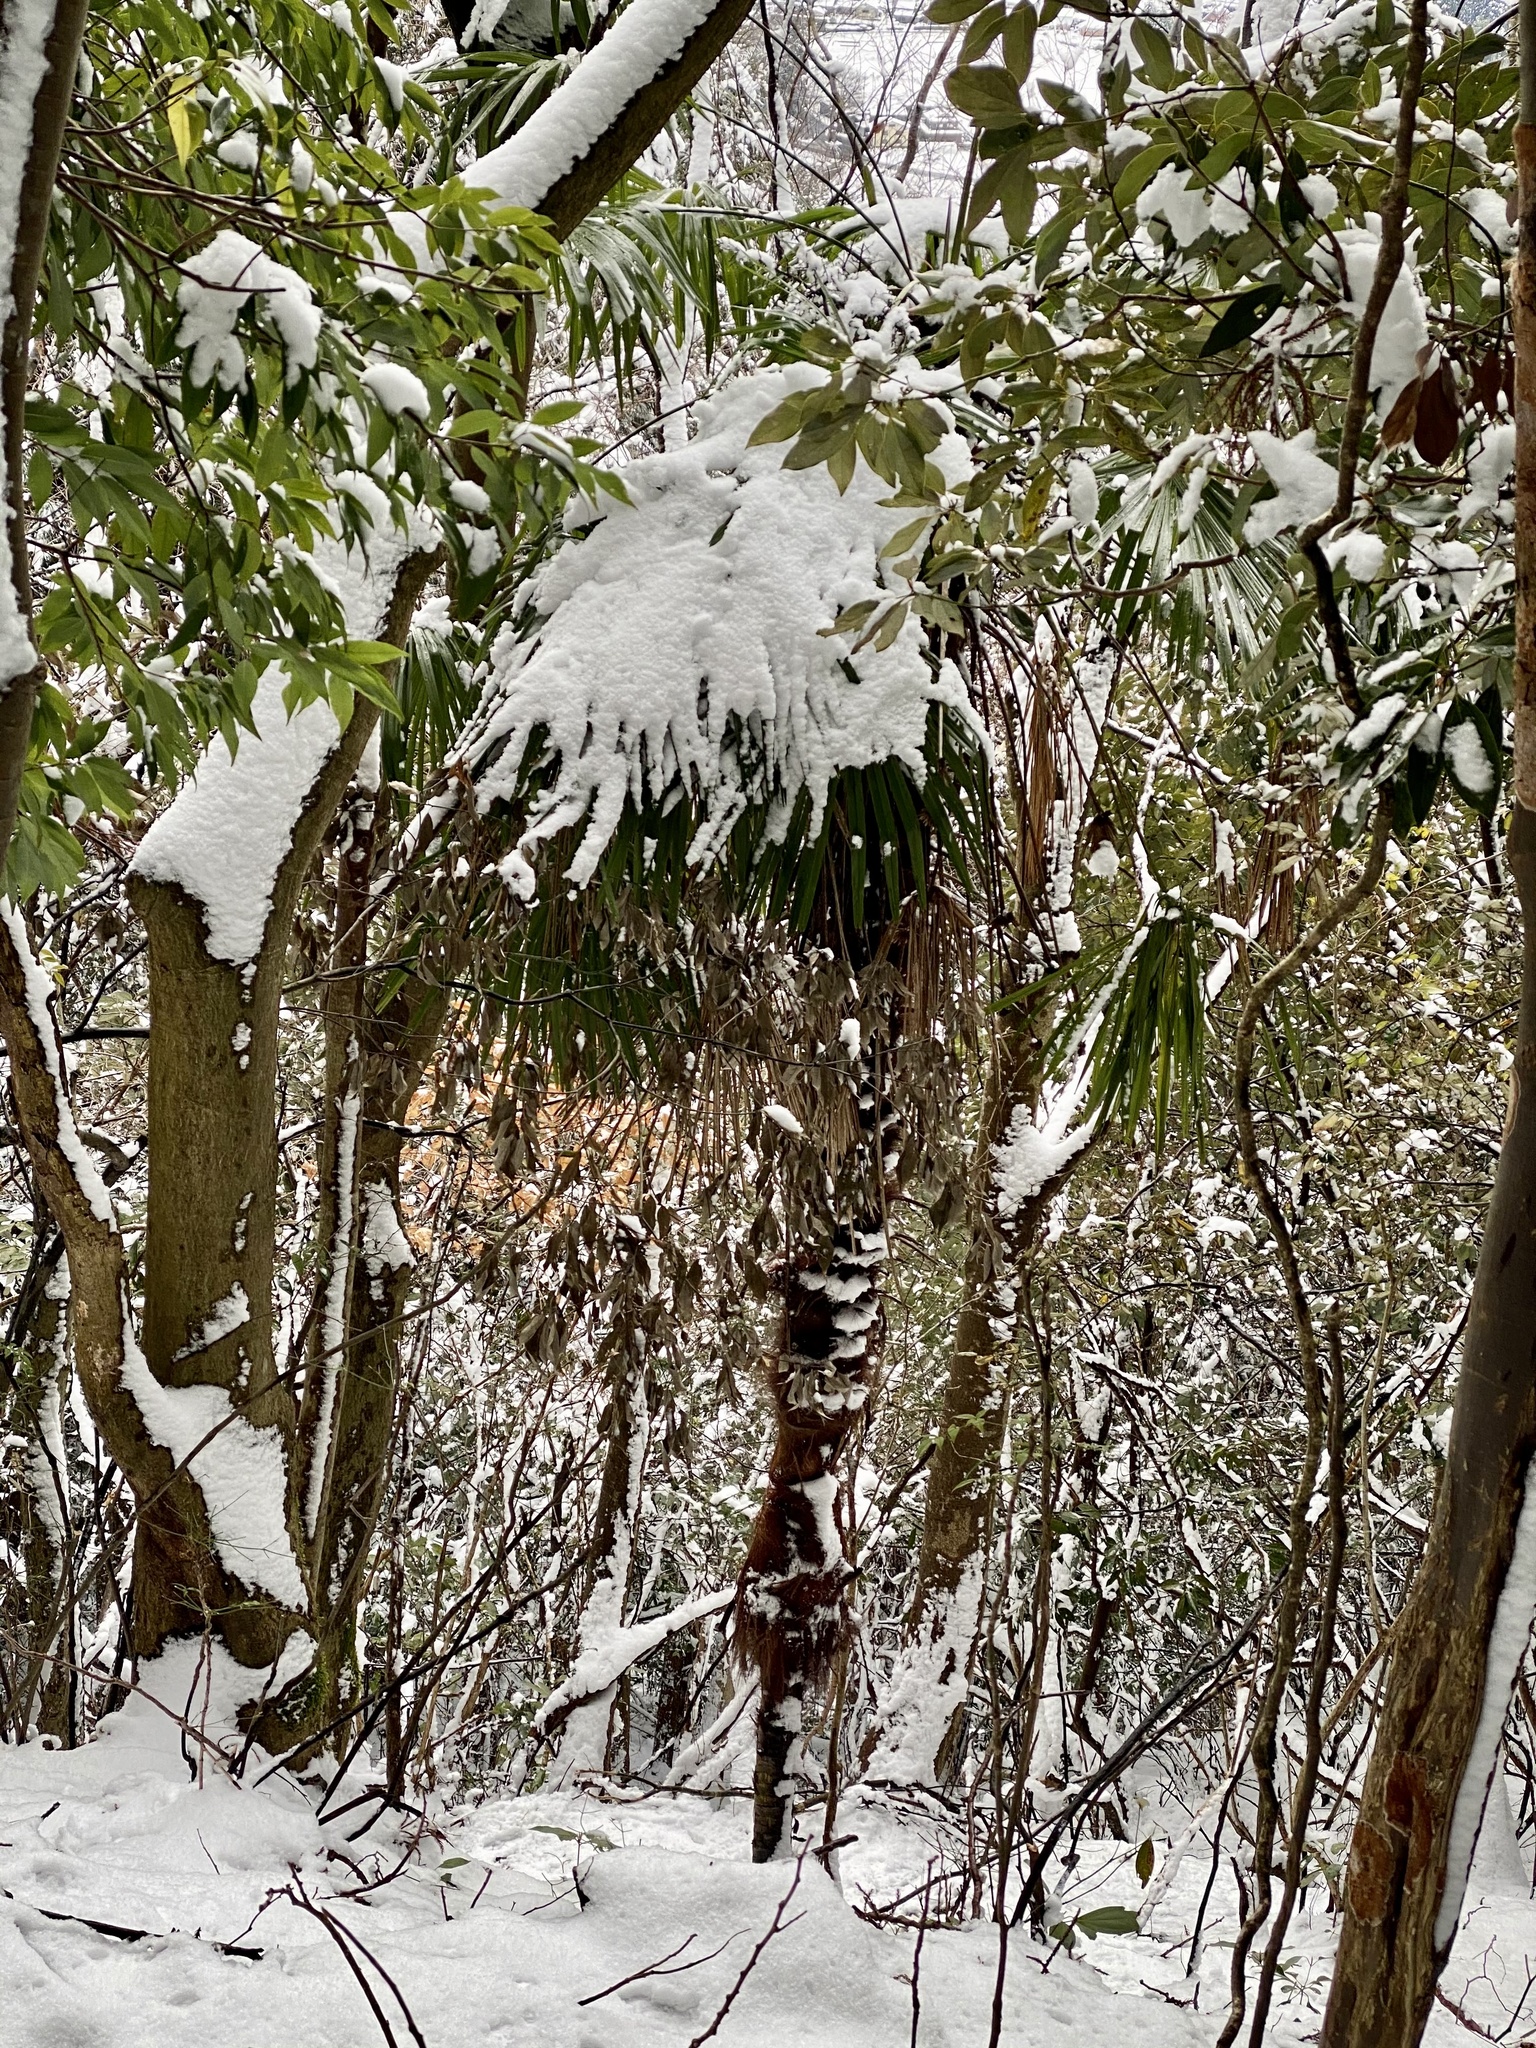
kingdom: Plantae
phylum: Tracheophyta
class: Liliopsida
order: Arecales
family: Arecaceae
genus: Trachycarpus
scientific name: Trachycarpus fortunei
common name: Chusan palm
